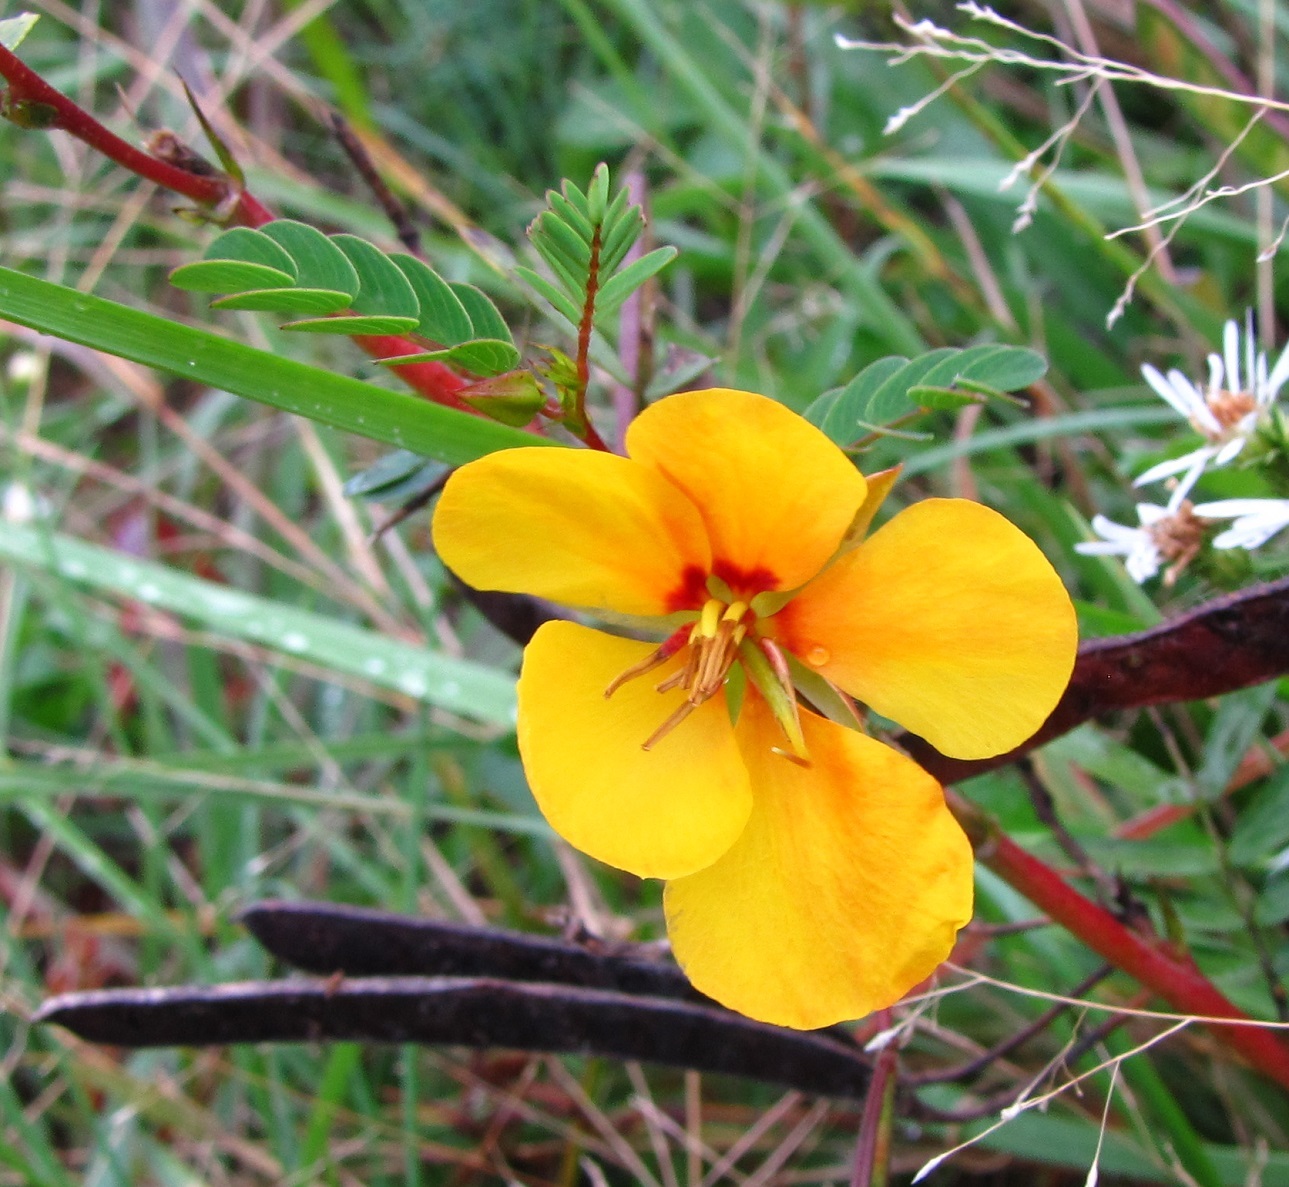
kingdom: Plantae
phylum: Tracheophyta
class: Magnoliopsida
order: Fabales
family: Fabaceae
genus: Chamaecrista
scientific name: Chamaecrista fasciculata
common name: Golden cassia
